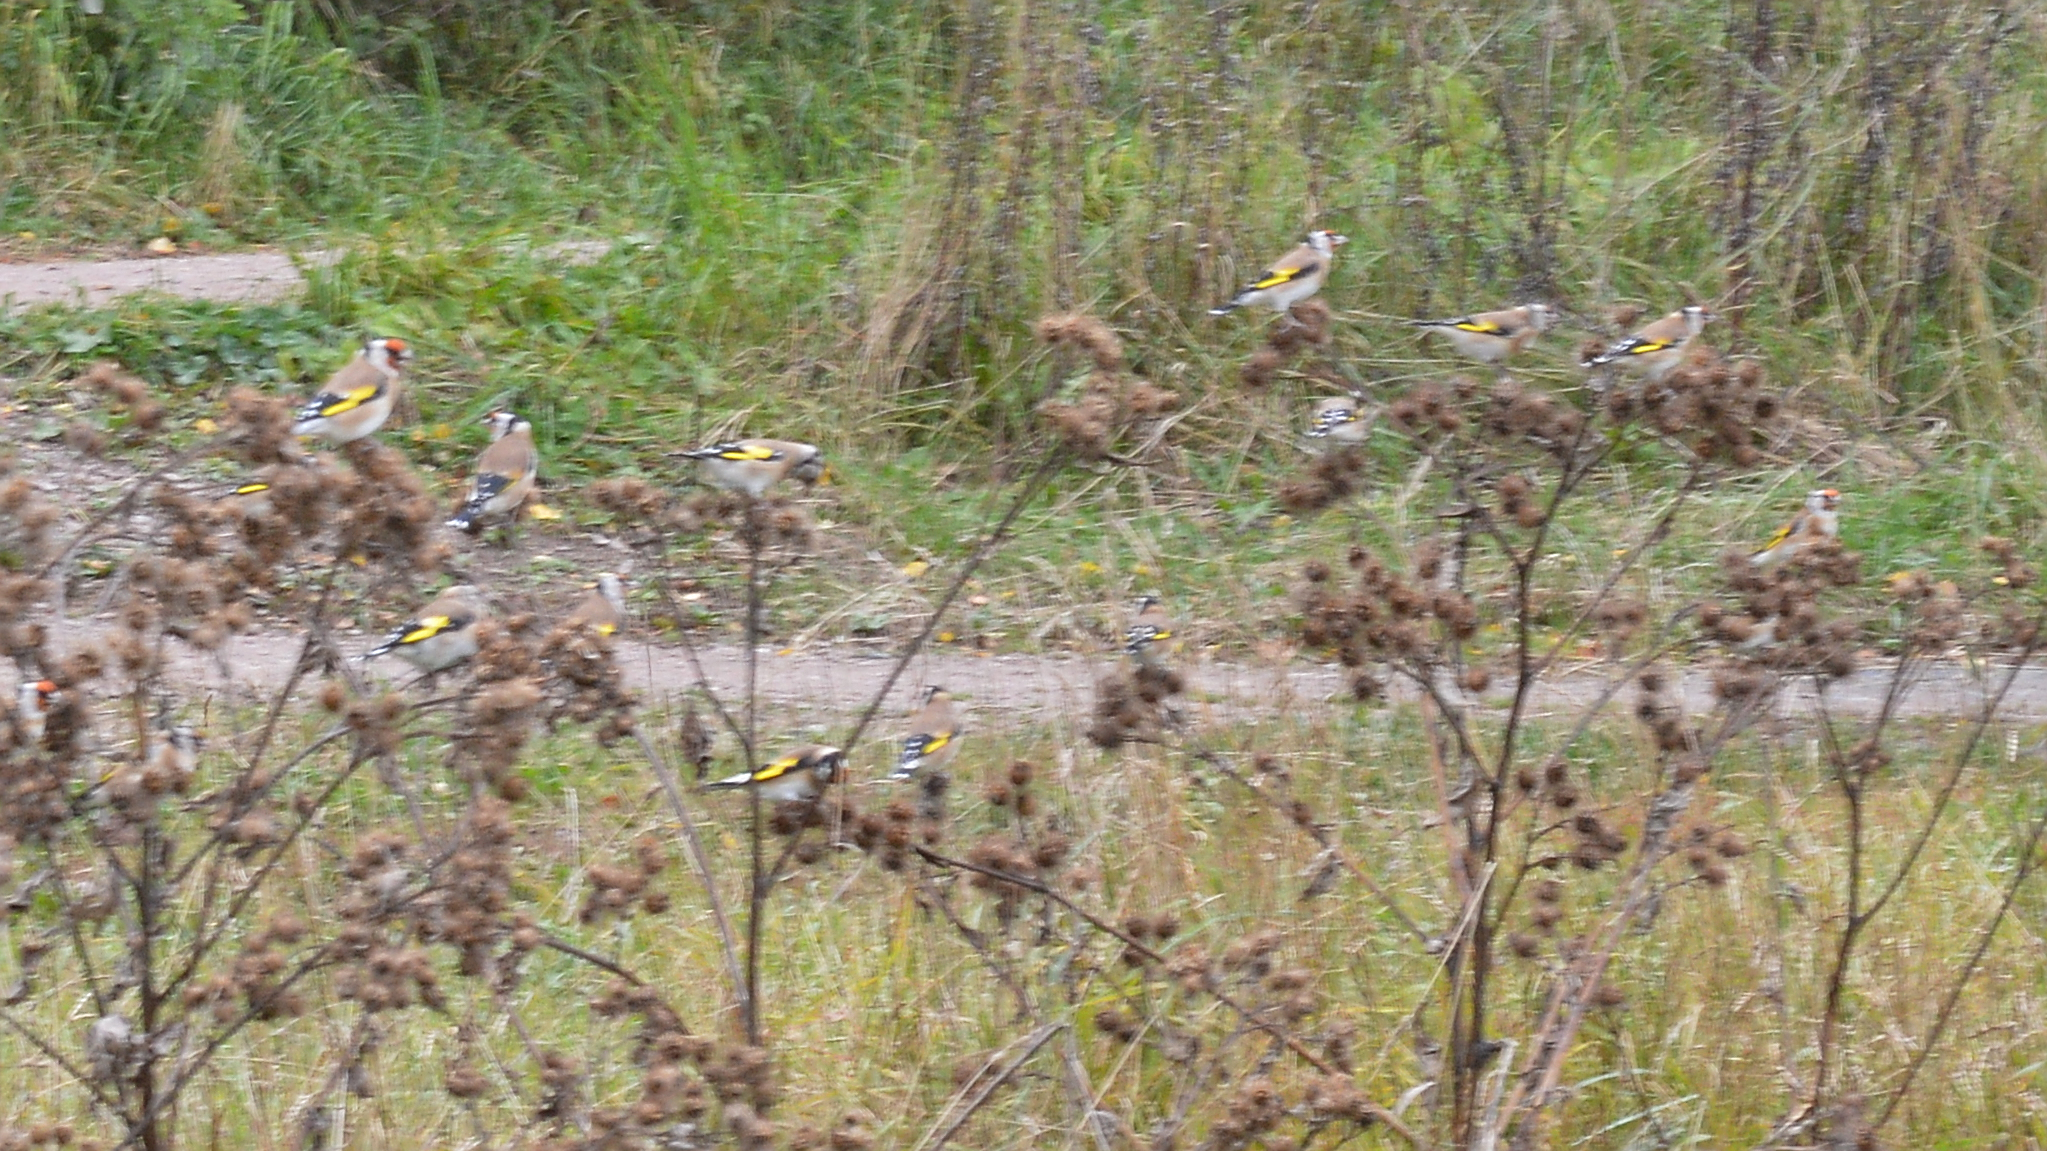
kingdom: Animalia
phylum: Chordata
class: Aves
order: Passeriformes
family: Fringillidae
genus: Carduelis
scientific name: Carduelis carduelis
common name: European goldfinch
